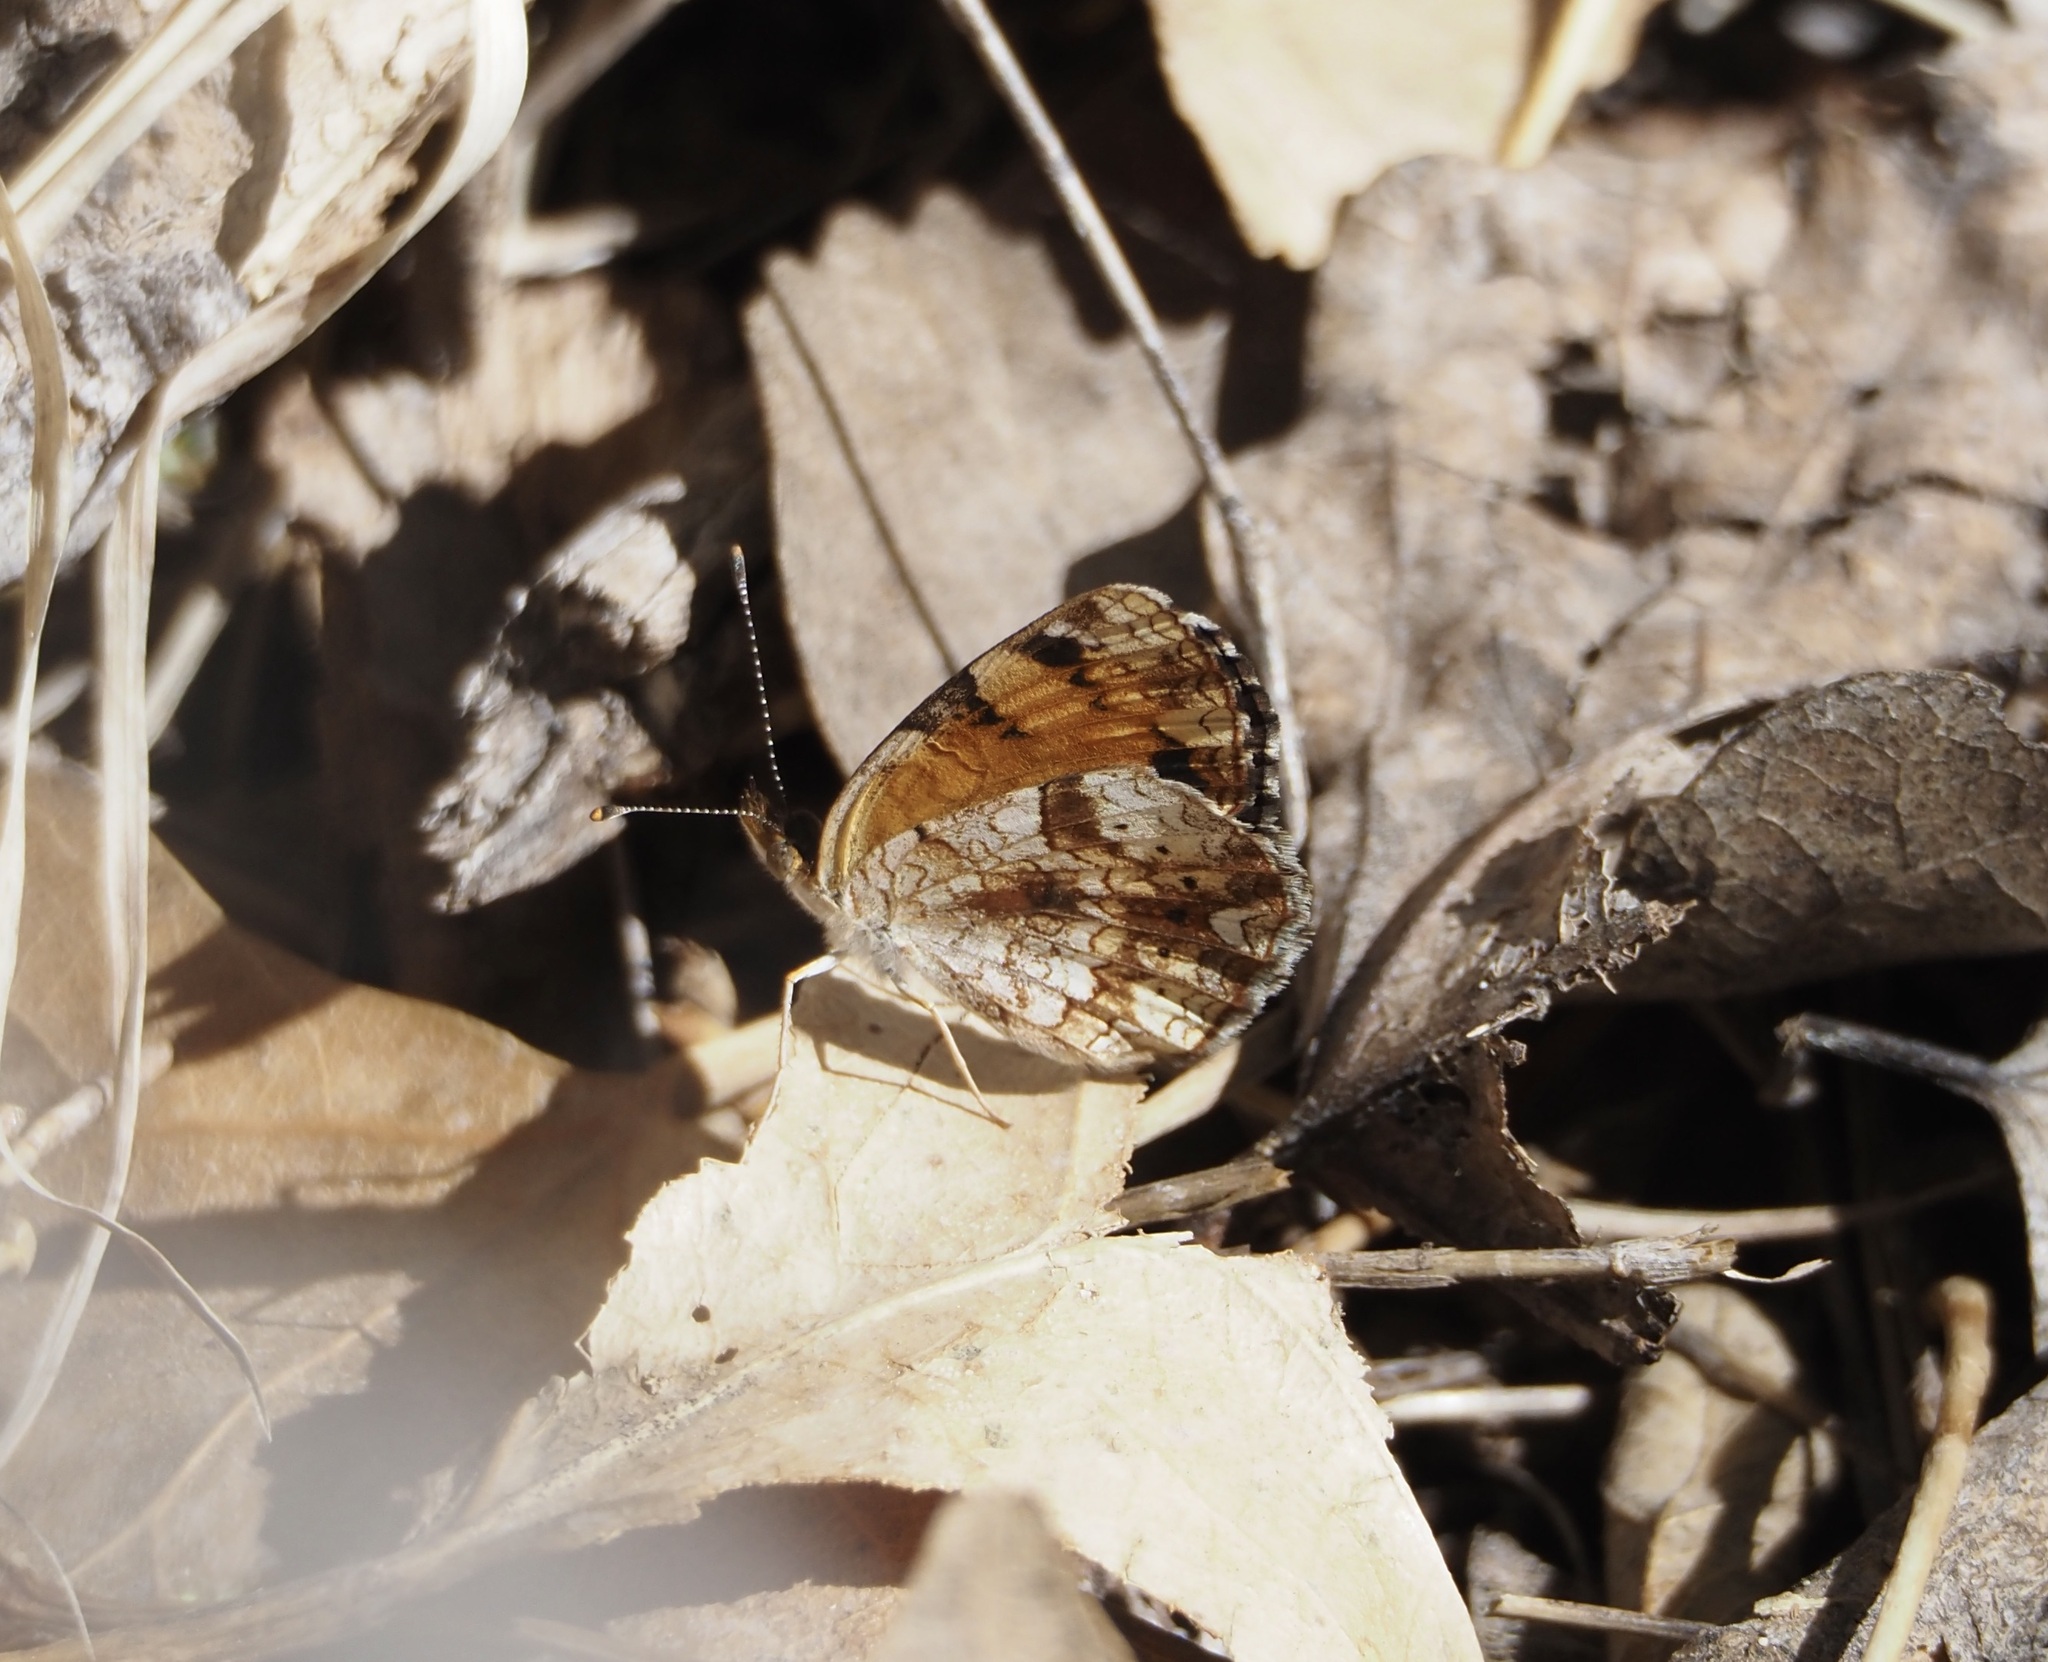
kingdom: Animalia
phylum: Arthropoda
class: Insecta
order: Lepidoptera
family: Nymphalidae
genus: Phyciodes
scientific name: Phyciodes tharos
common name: Pearl crescent
